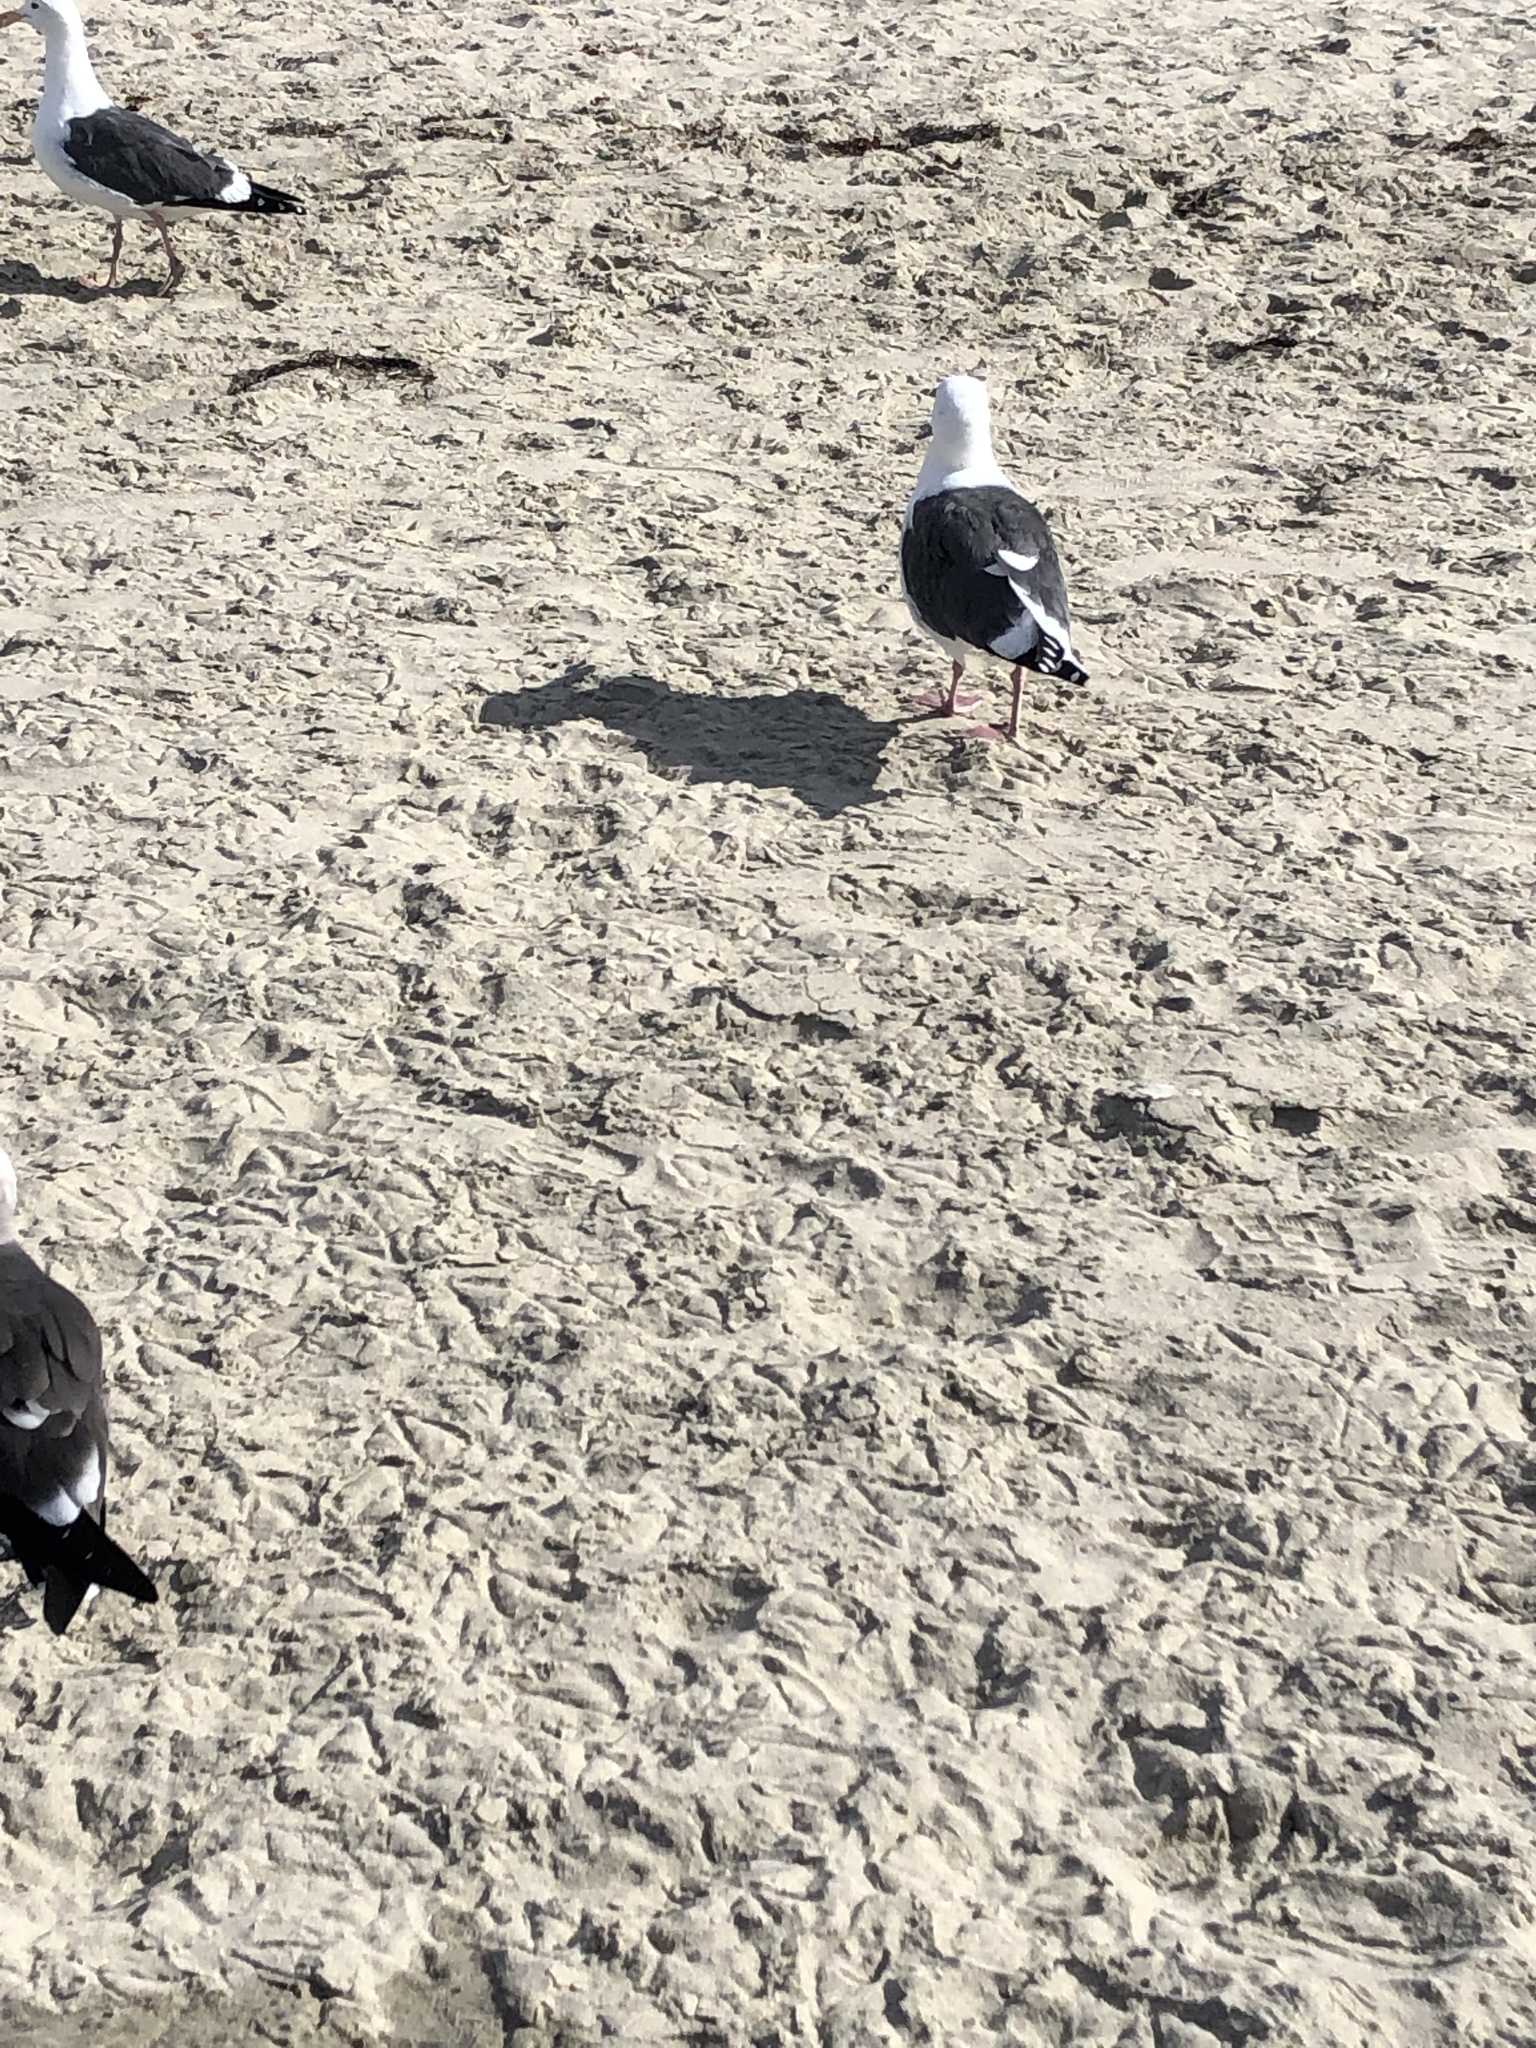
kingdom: Animalia
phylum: Chordata
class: Aves
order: Charadriiformes
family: Laridae
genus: Larus
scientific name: Larus occidentalis
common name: Western gull
